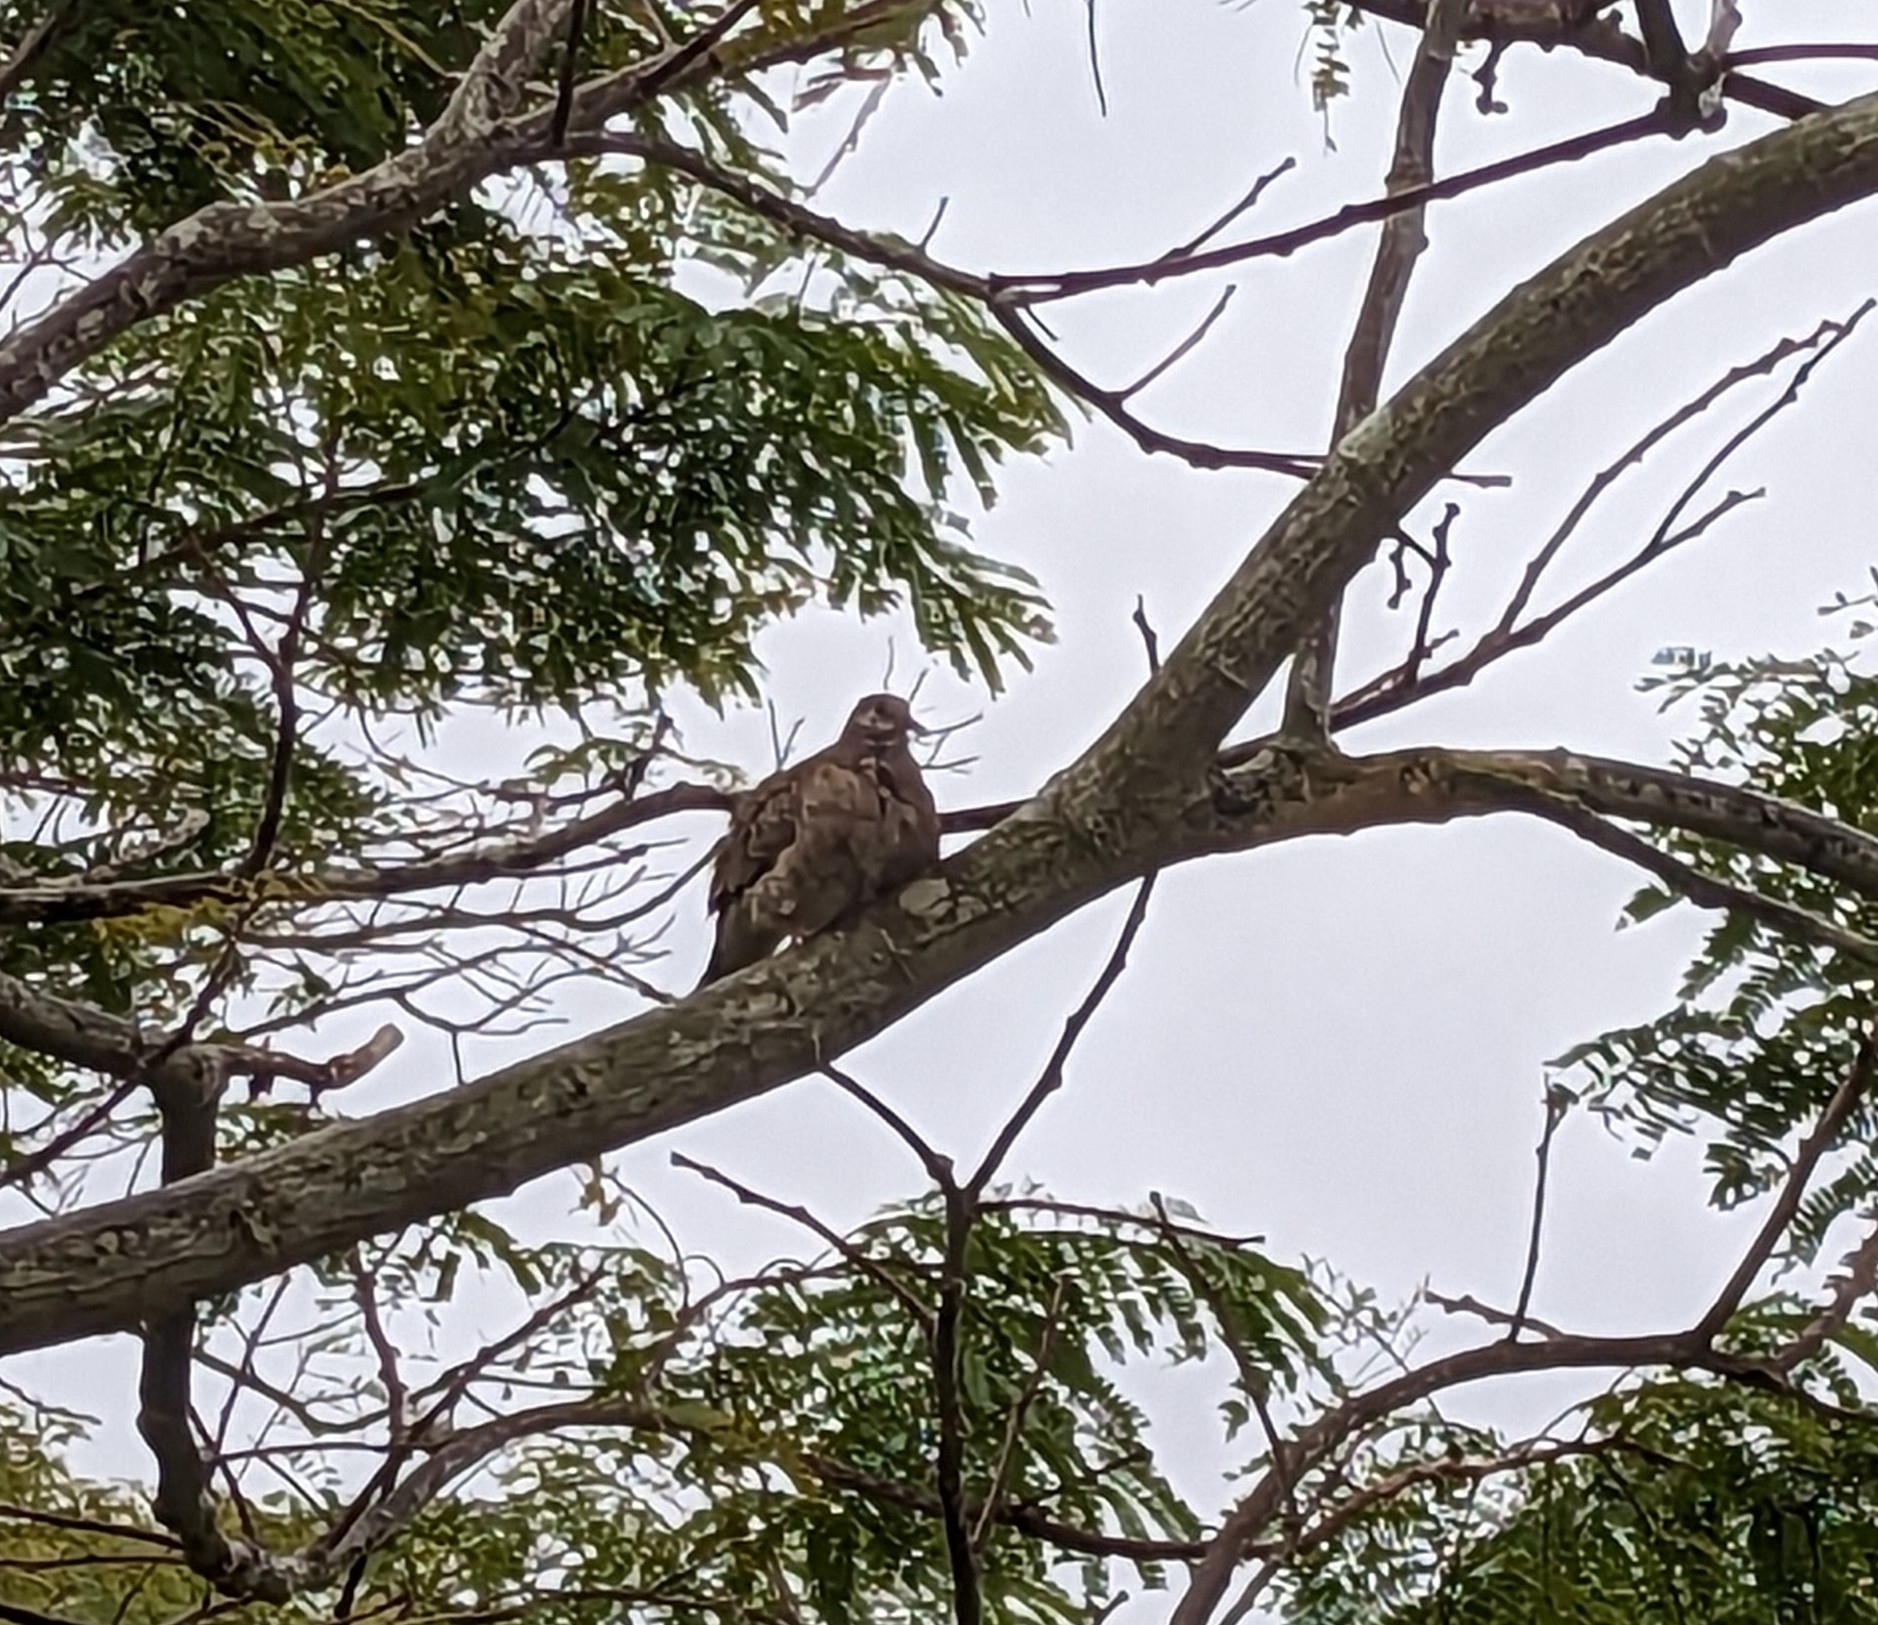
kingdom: Animalia
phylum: Chordata
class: Aves
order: Columbiformes
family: Columbidae
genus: Columbina
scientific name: Columbina inca
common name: Inca dove
